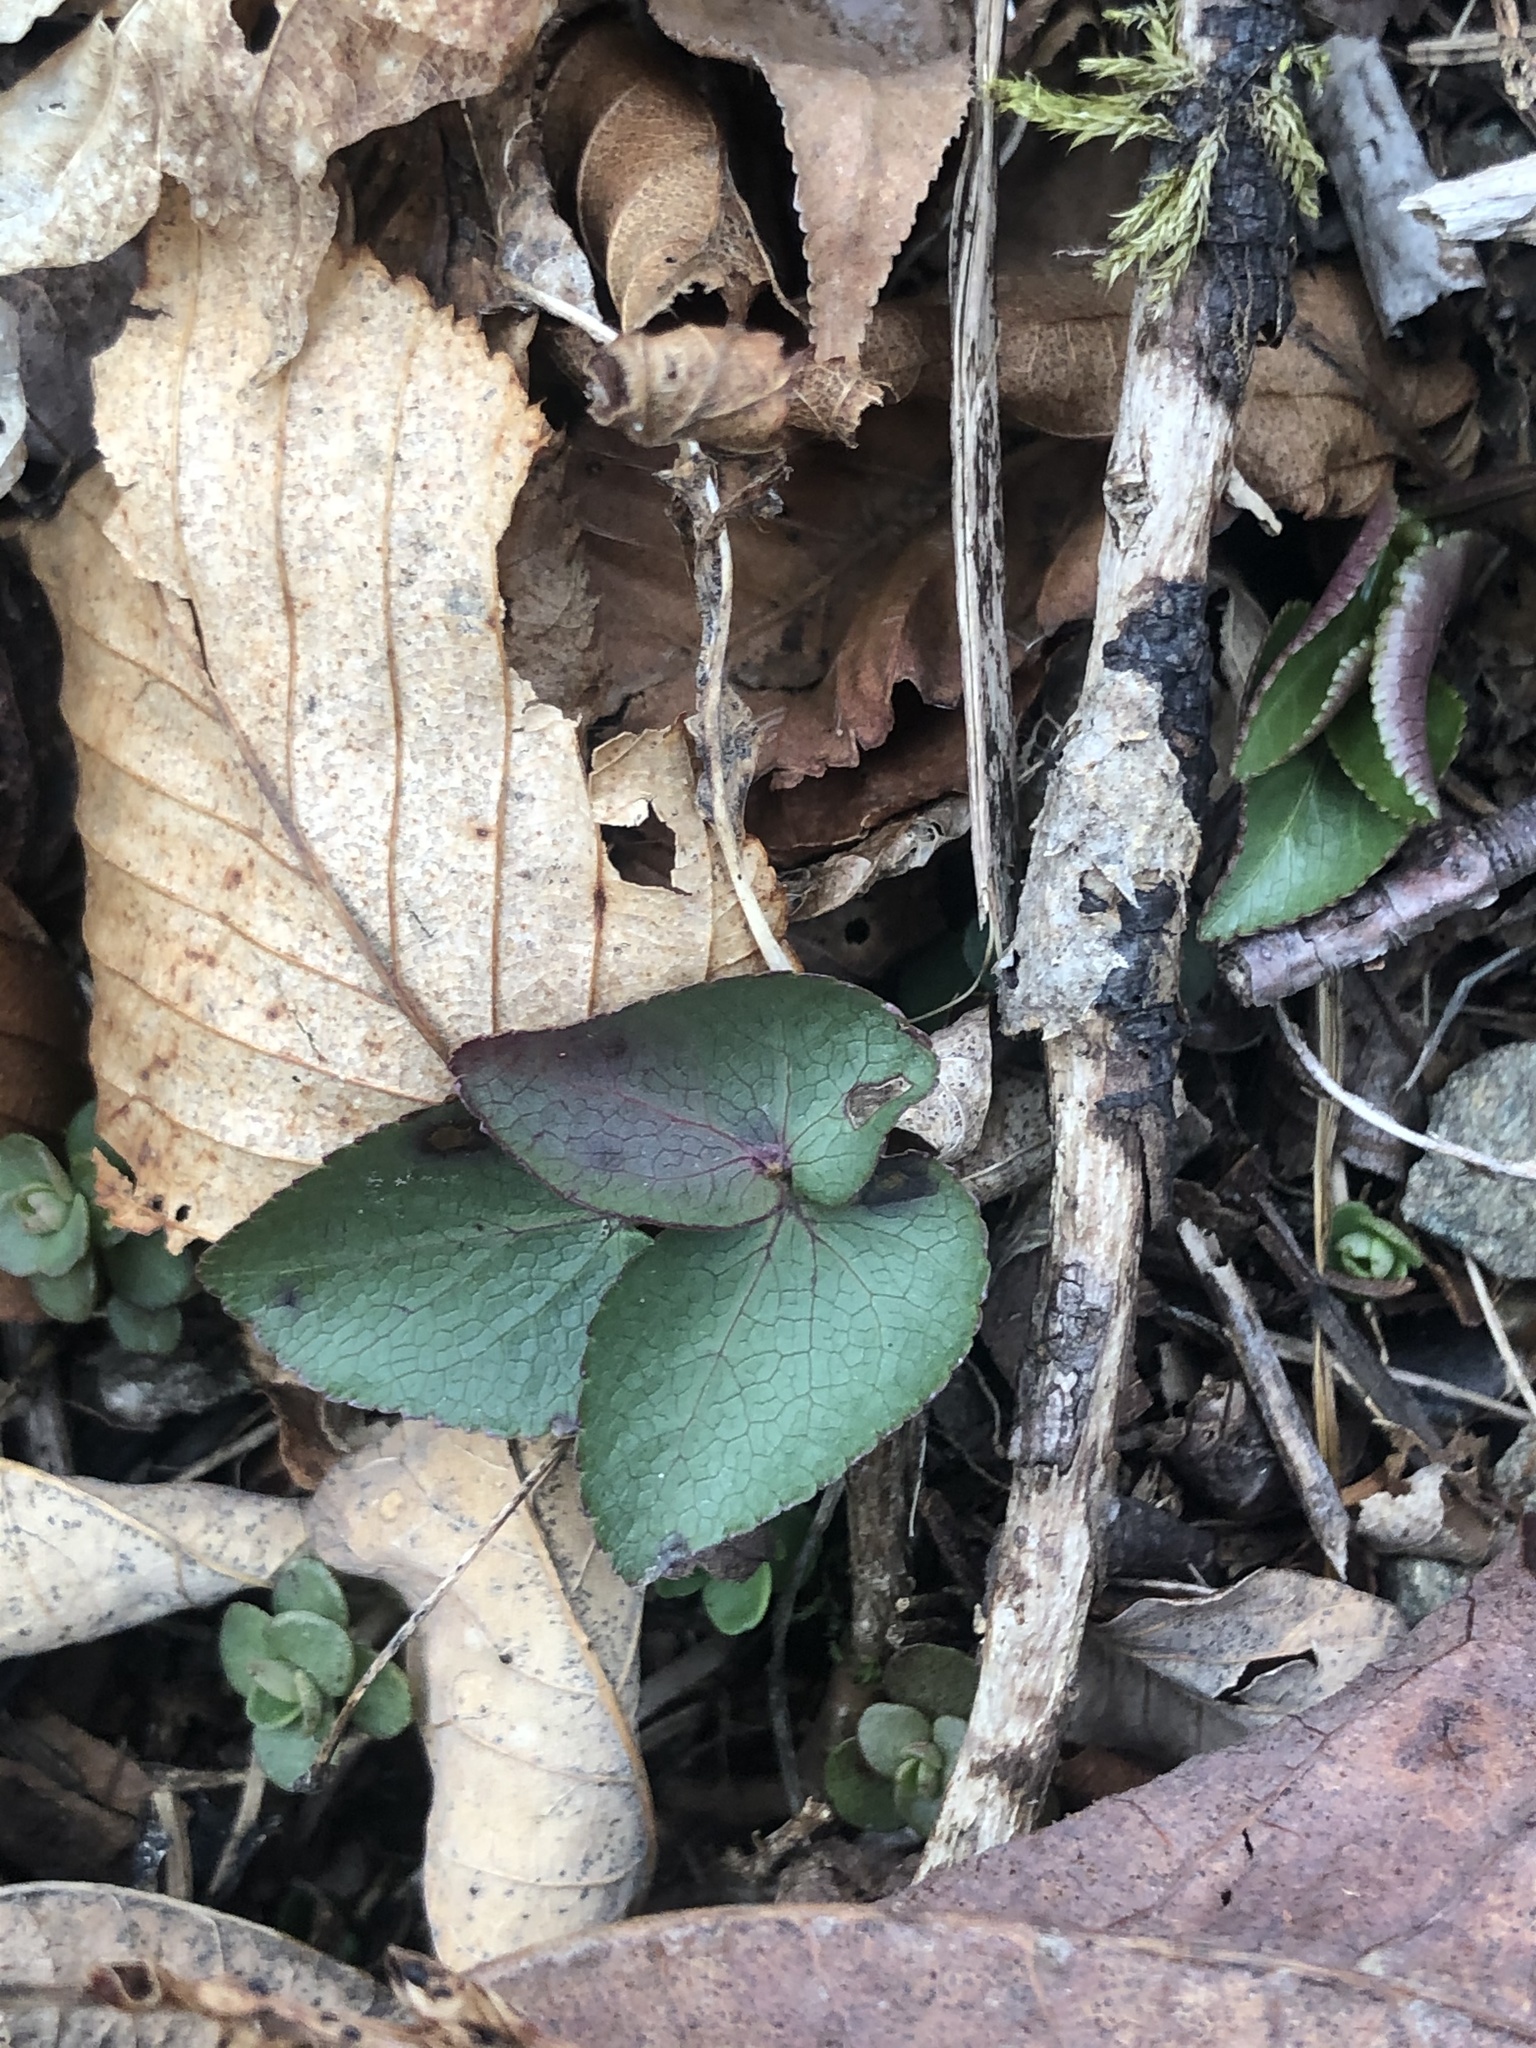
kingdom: Plantae
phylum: Tracheophyta
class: Magnoliopsida
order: Apiales
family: Apiaceae
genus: Thaspium
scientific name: Thaspium trifoliatum
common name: Purple meadow-parsnip
